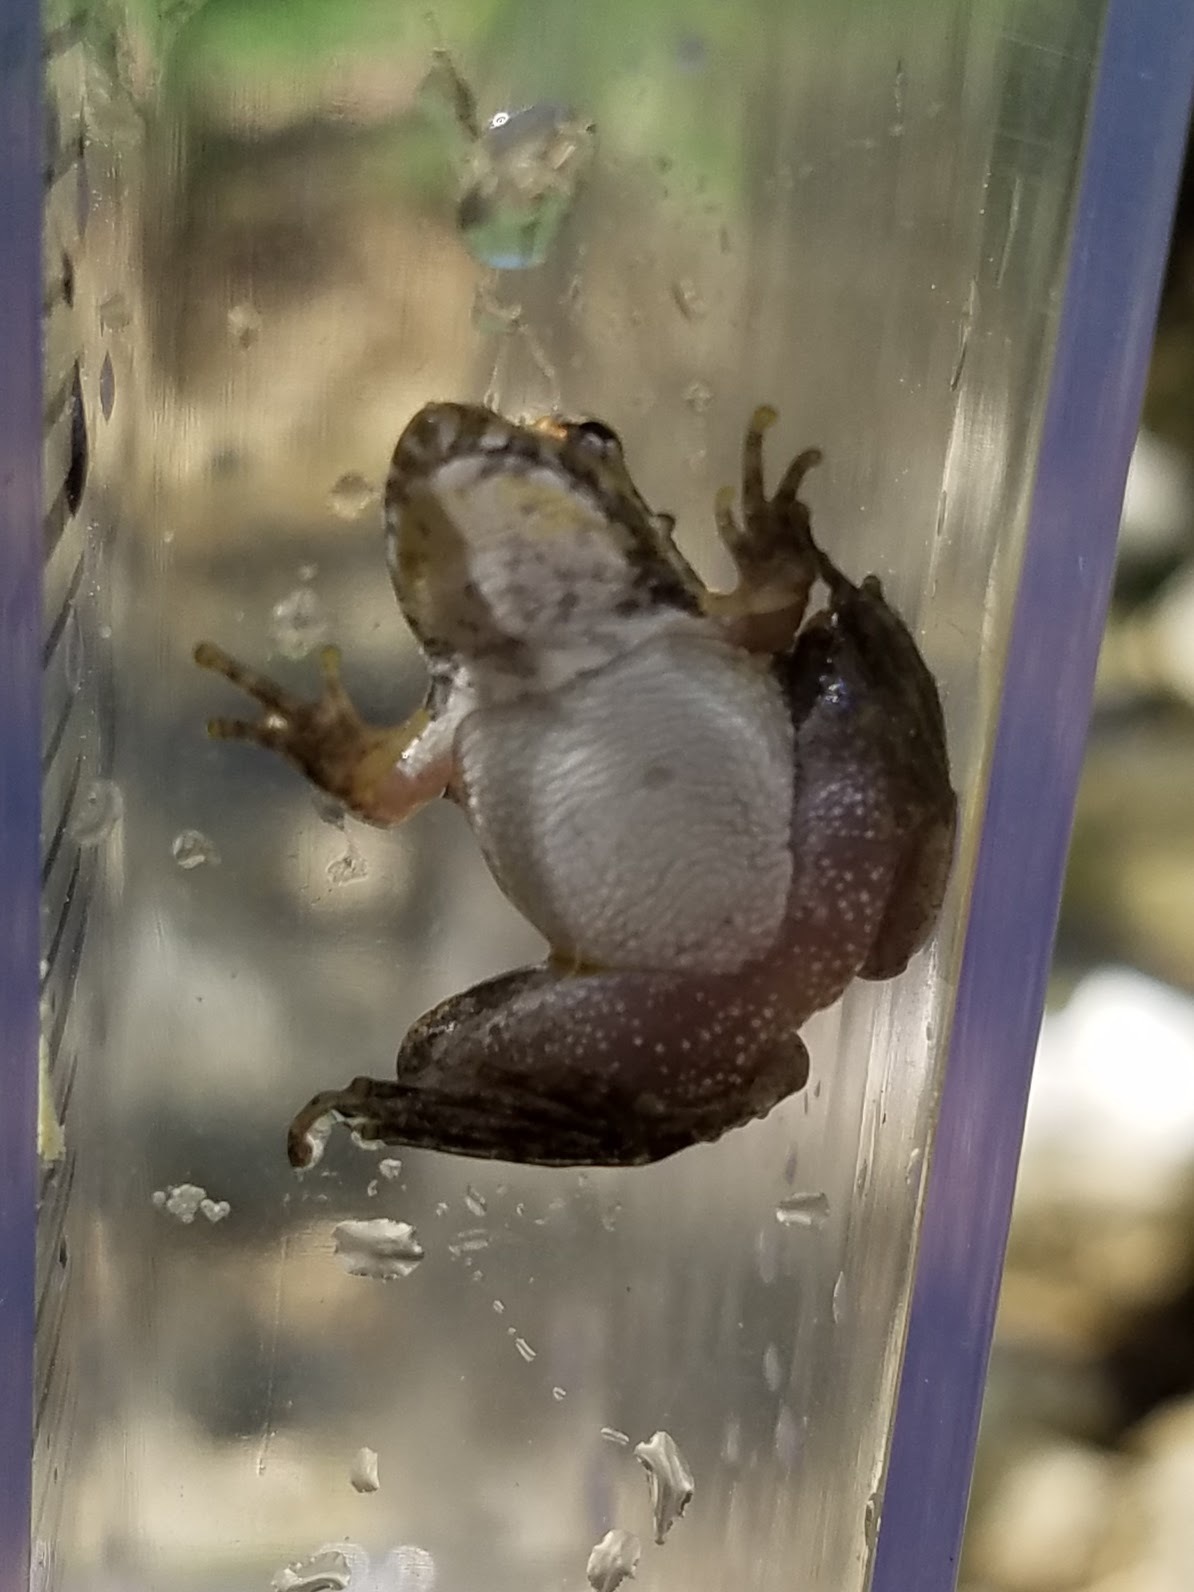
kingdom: Animalia
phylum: Chordata
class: Amphibia
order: Anura
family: Hylidae
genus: Acris
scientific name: Acris crepitans
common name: Northern cricket frog
